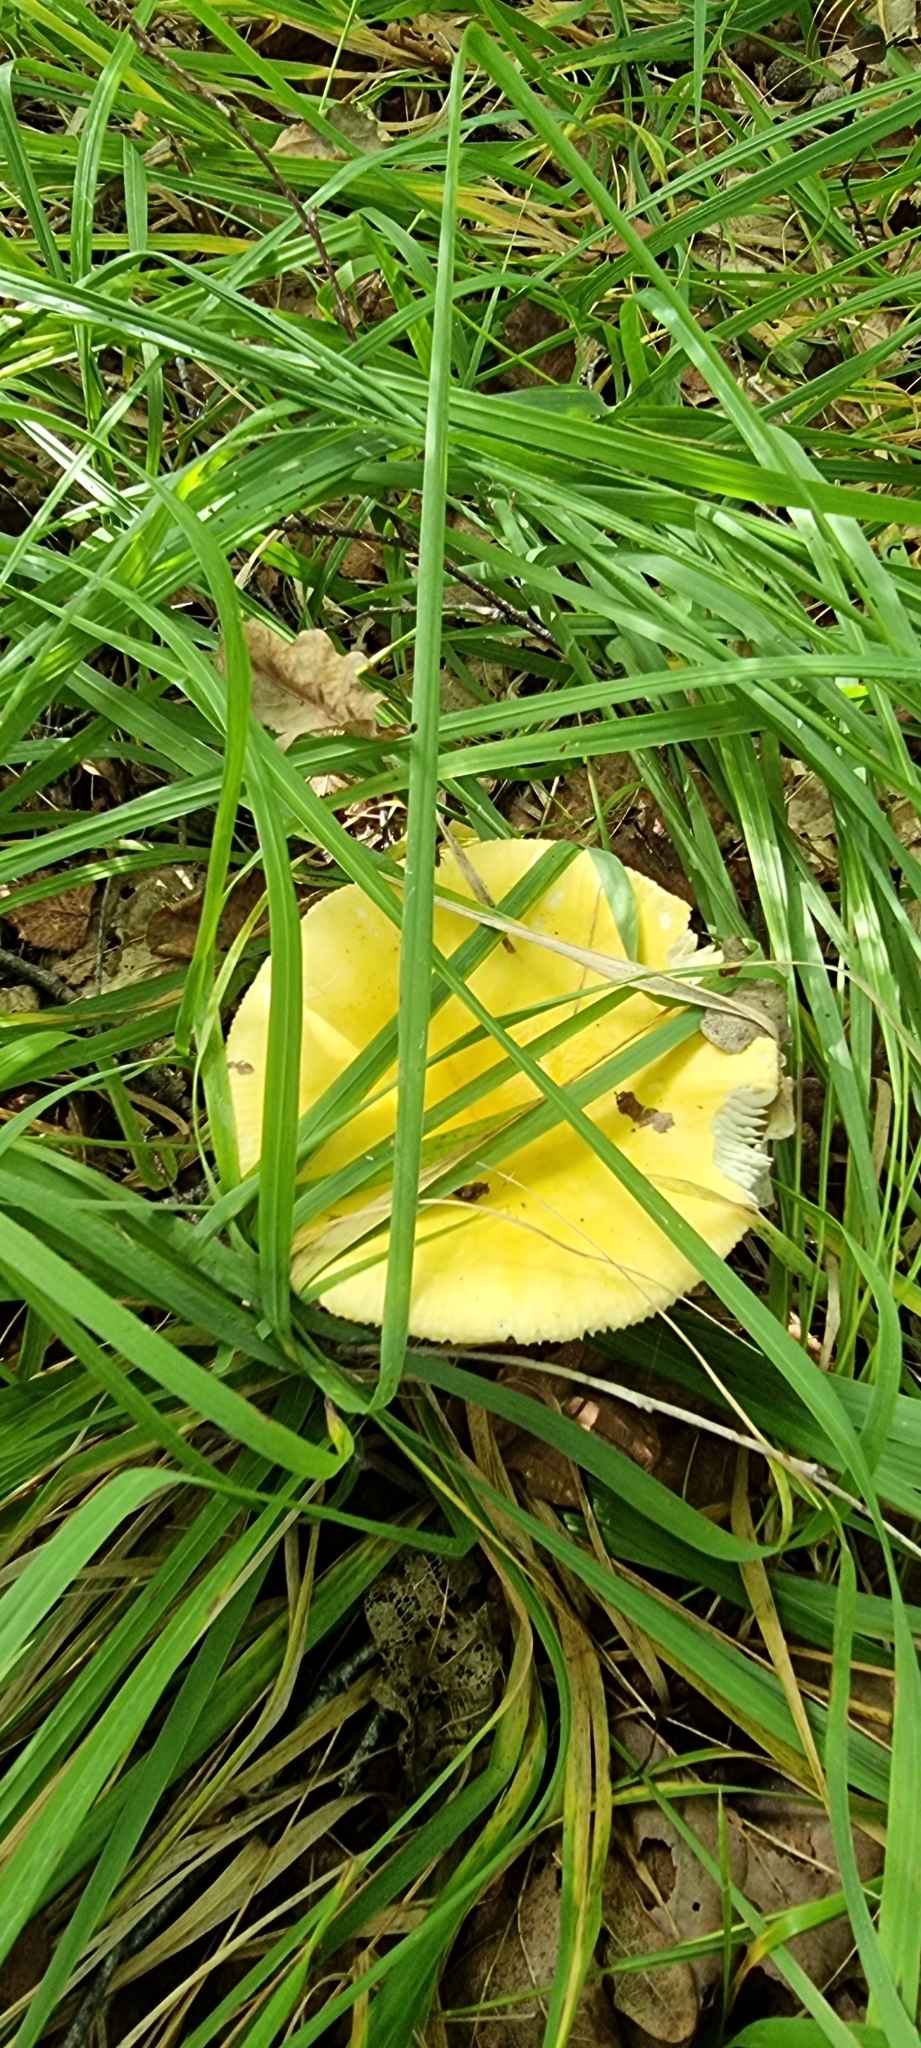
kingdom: Fungi
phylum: Basidiomycota
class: Agaricomycetes
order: Russulales
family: Russulaceae
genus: Russula
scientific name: Russula claroflava
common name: The yellow swamp brittlegill
